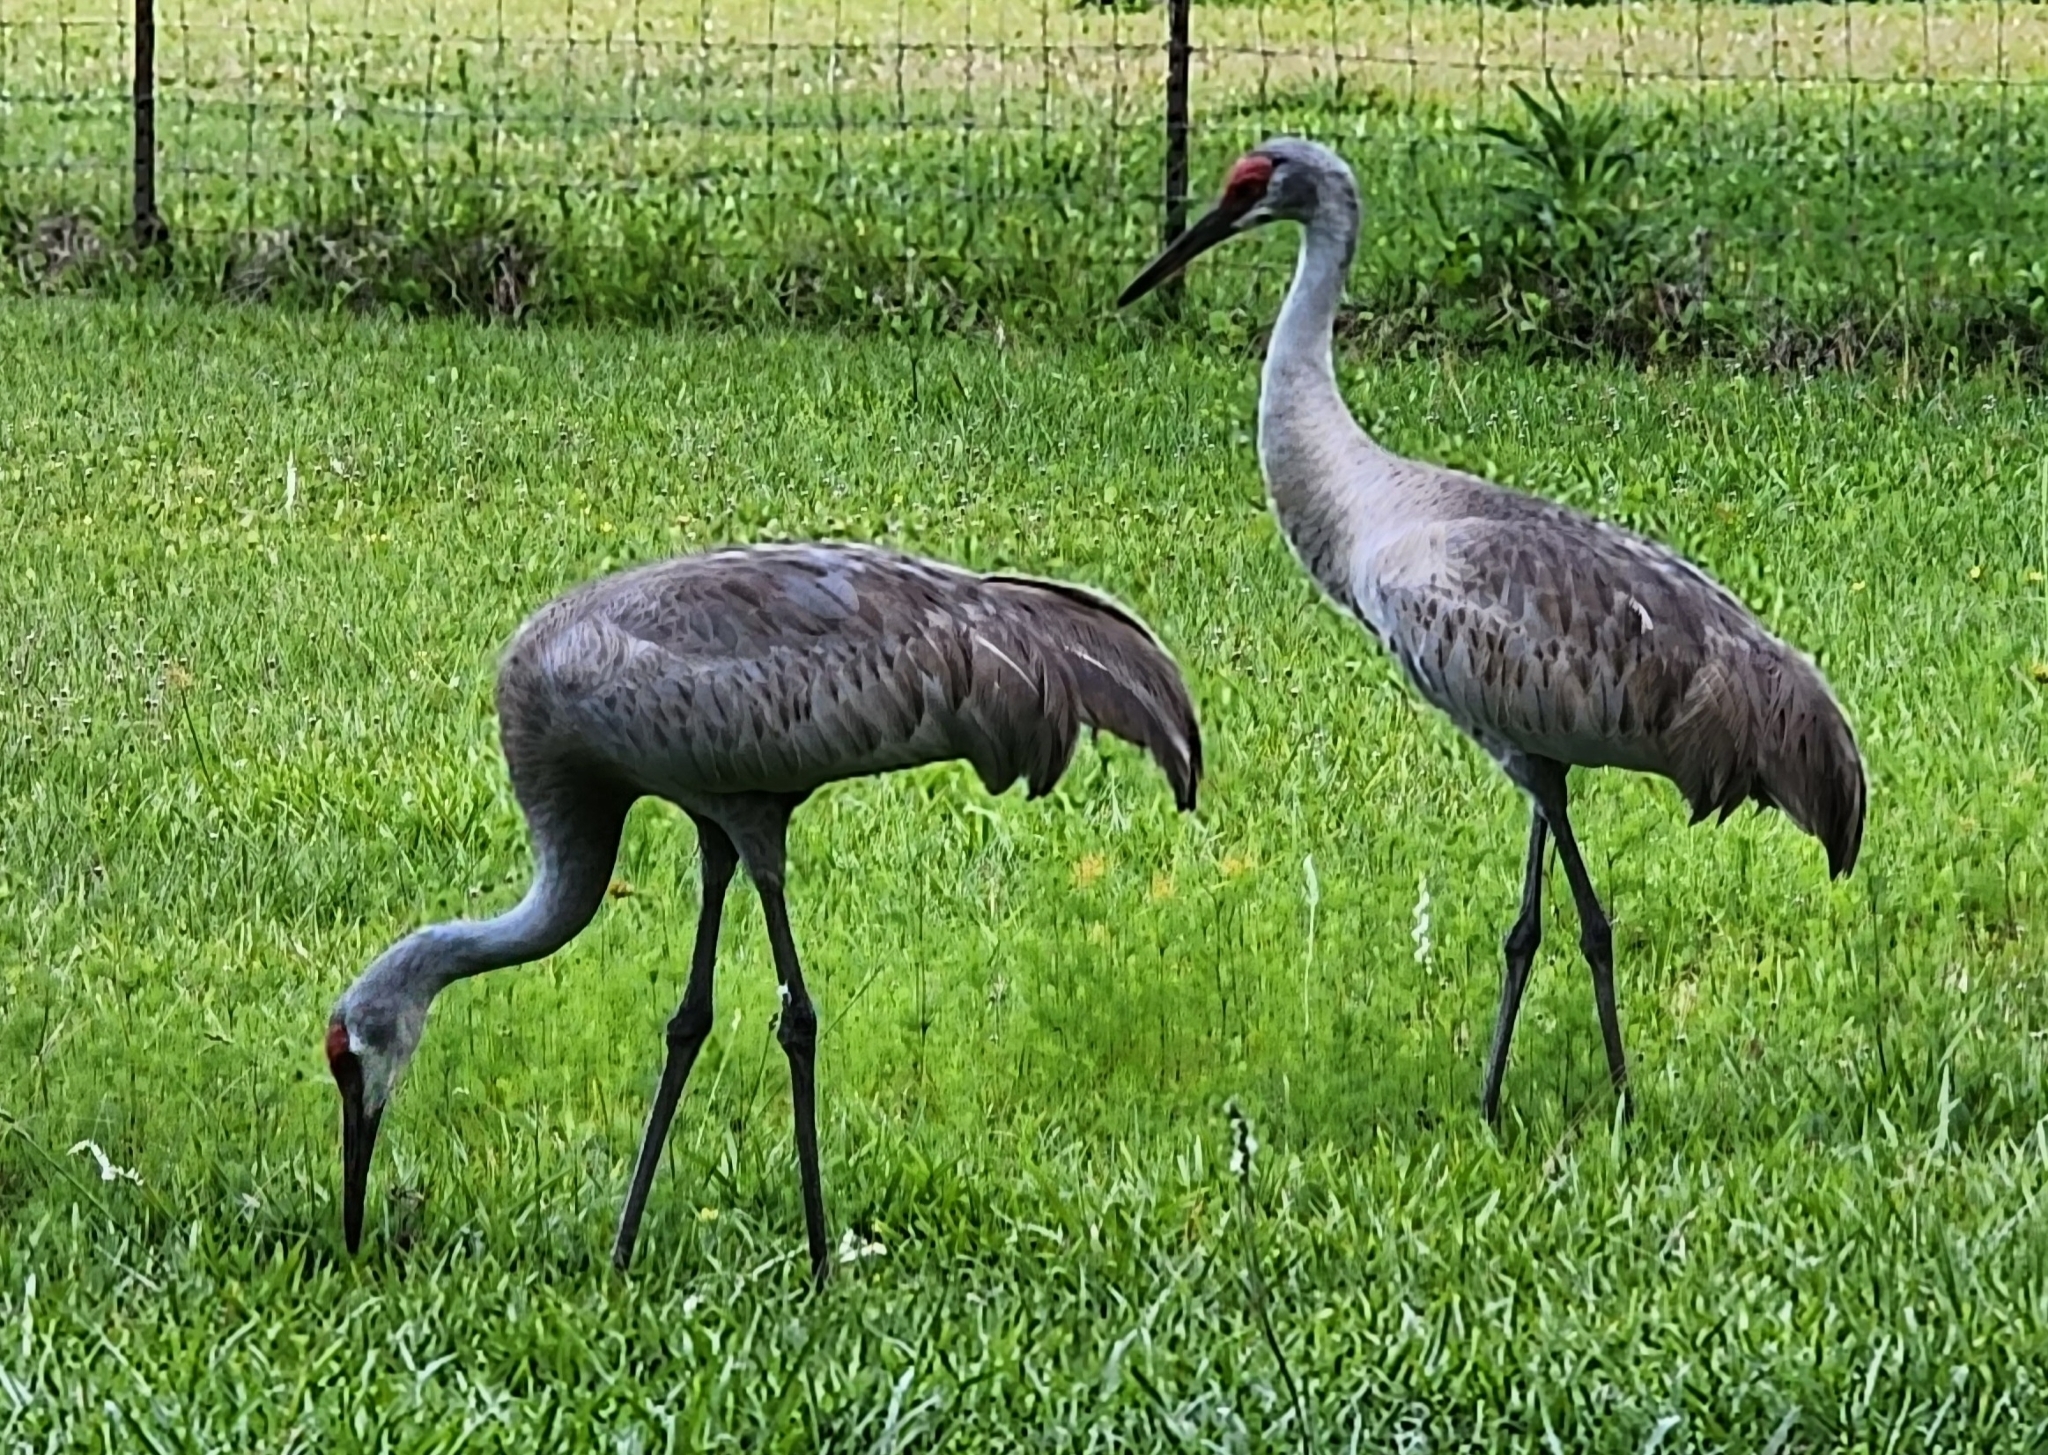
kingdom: Animalia
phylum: Chordata
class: Aves
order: Gruiformes
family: Gruidae
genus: Grus
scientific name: Grus canadensis
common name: Sandhill crane
